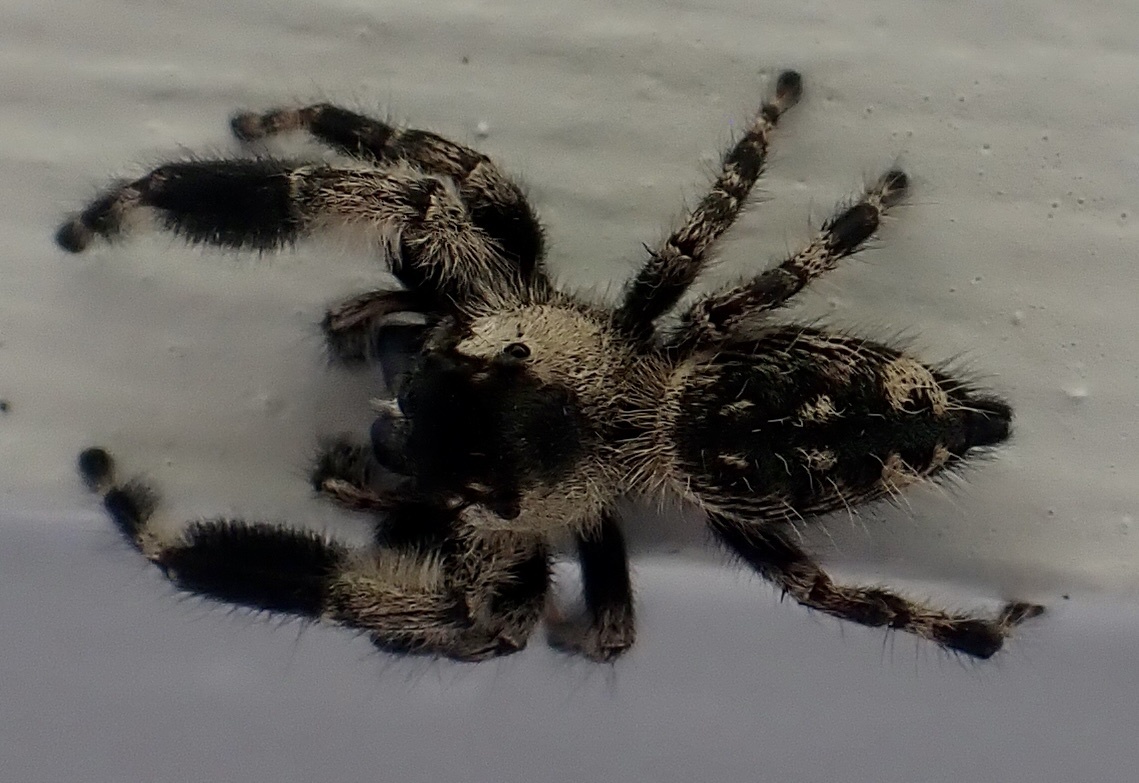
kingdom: Animalia
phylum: Arthropoda
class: Arachnida
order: Araneae
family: Salticidae
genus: Phidippus
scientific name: Phidippus otiosus
